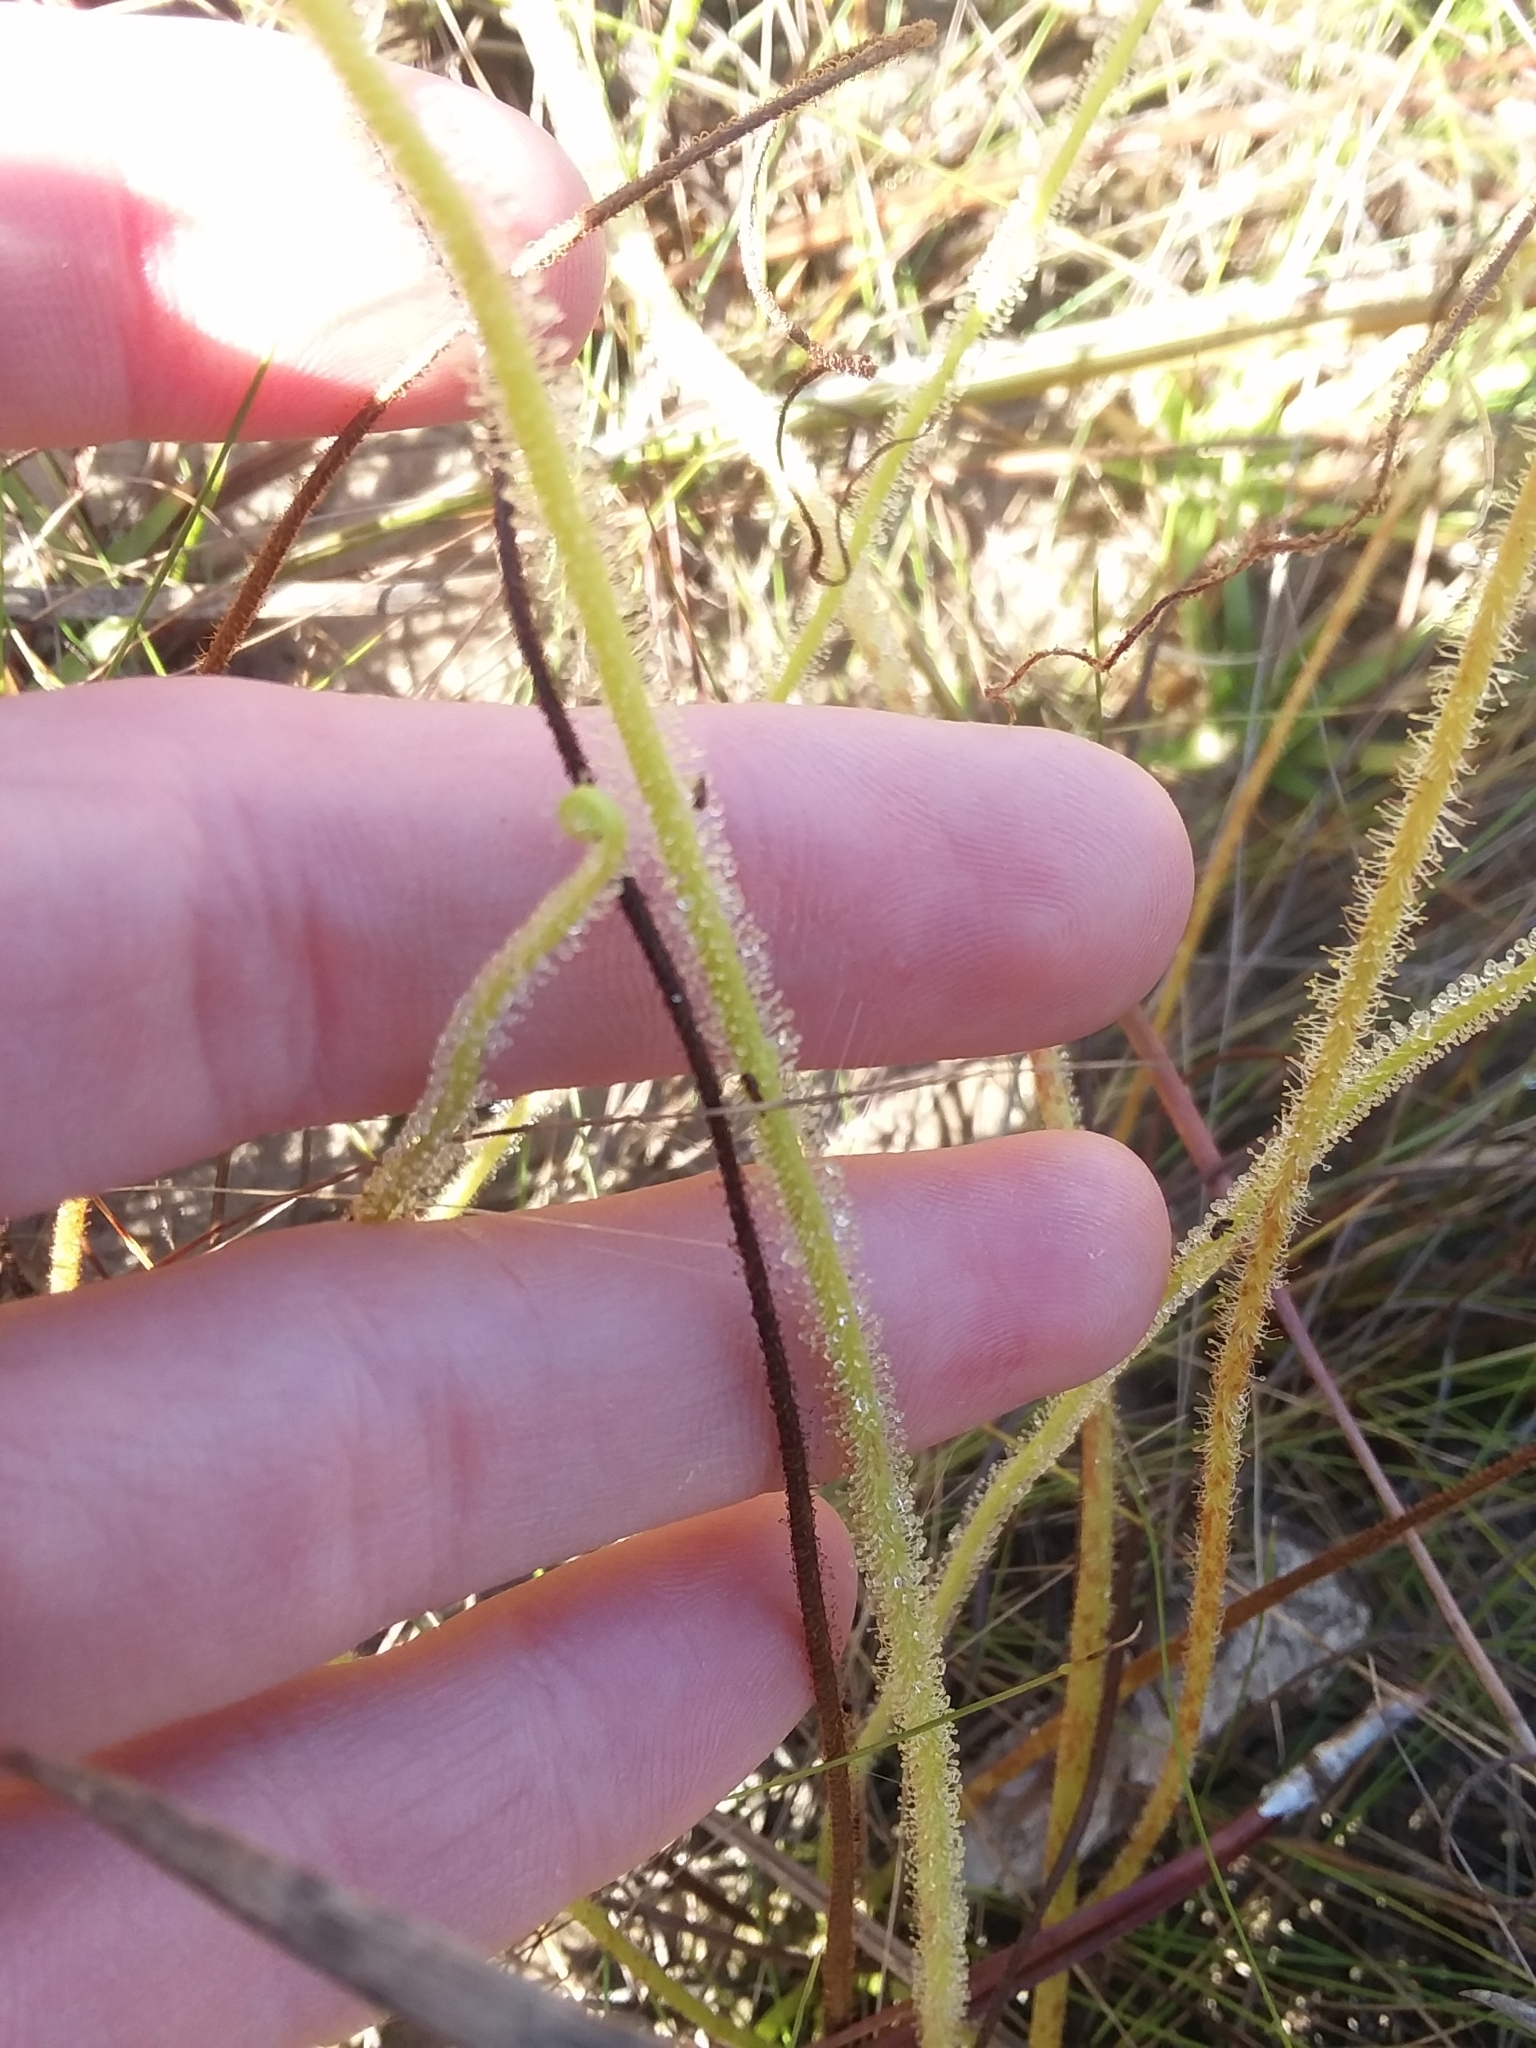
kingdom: Plantae
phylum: Tracheophyta
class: Magnoliopsida
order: Caryophyllales
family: Droseraceae
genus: Drosera
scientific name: Drosera filiformis
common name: Dew-thread
